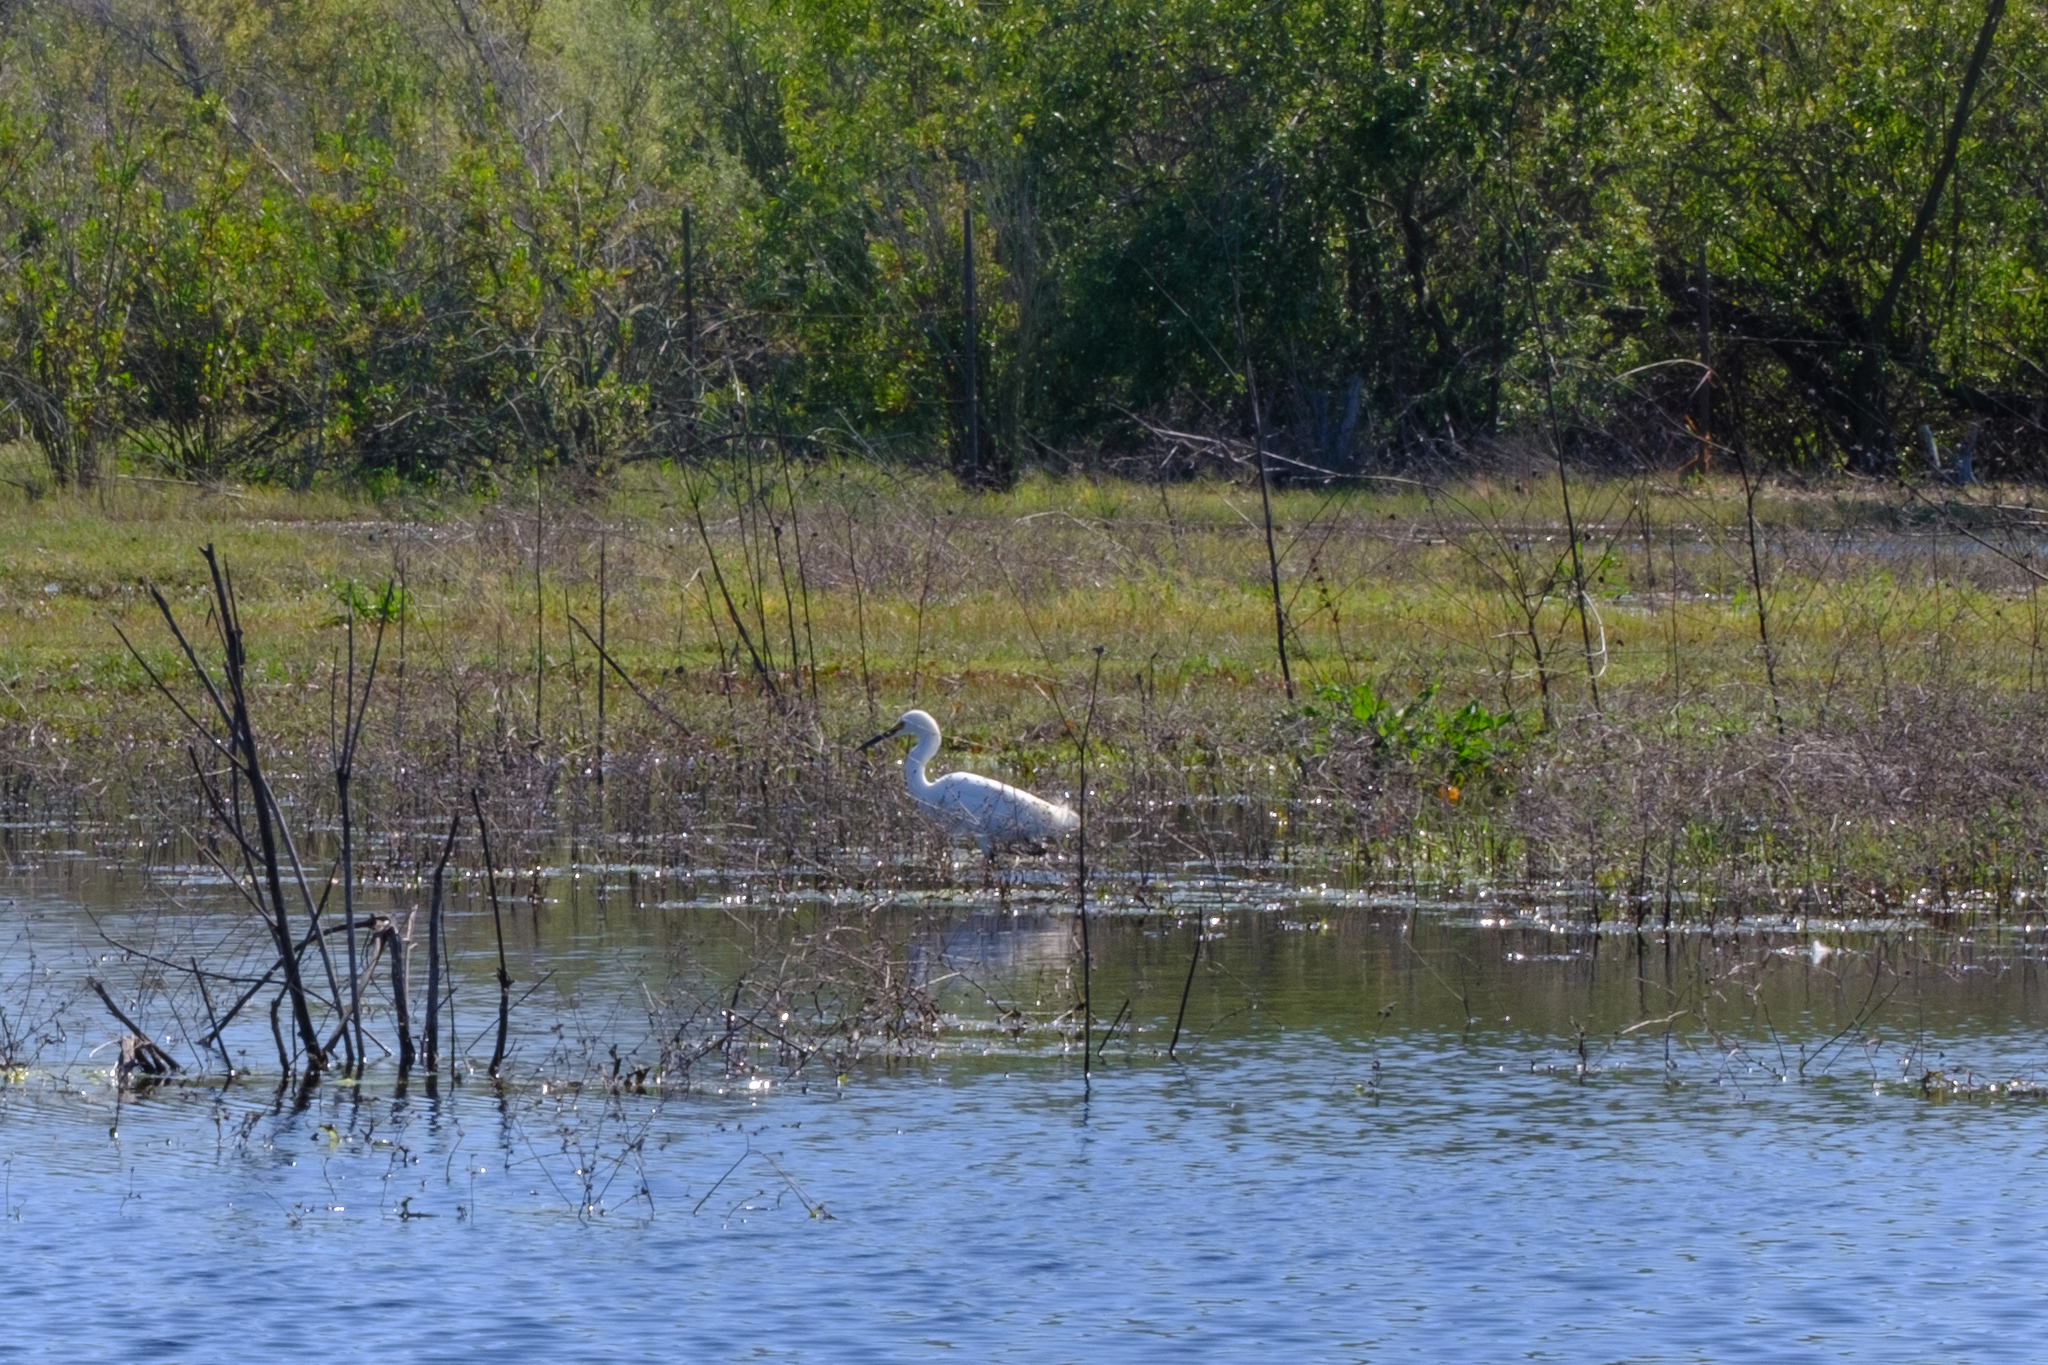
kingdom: Animalia
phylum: Chordata
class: Aves
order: Pelecaniformes
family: Ardeidae
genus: Egretta
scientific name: Egretta thula
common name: Snowy egret
